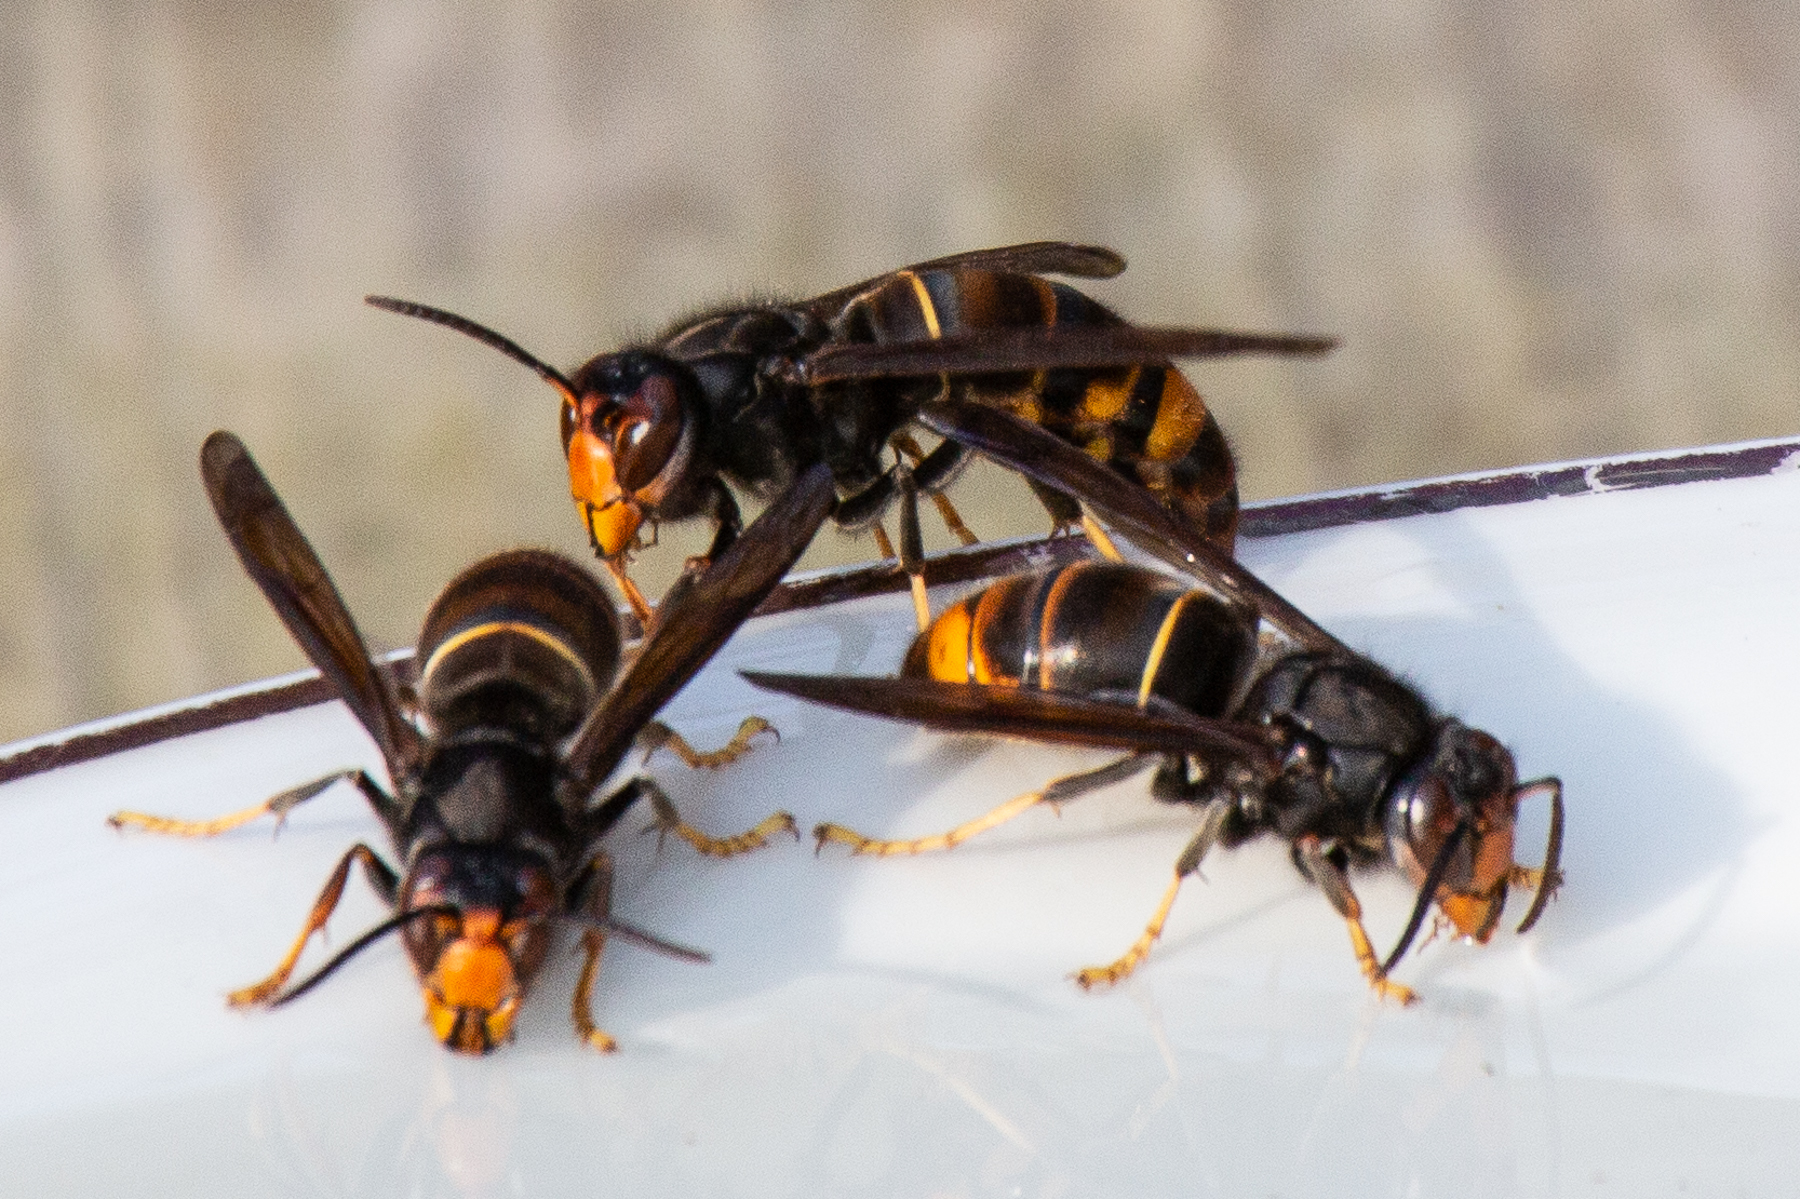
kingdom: Animalia
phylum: Arthropoda
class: Insecta
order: Hymenoptera
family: Vespidae
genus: Vespa
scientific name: Vespa velutina
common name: Asian hornet
